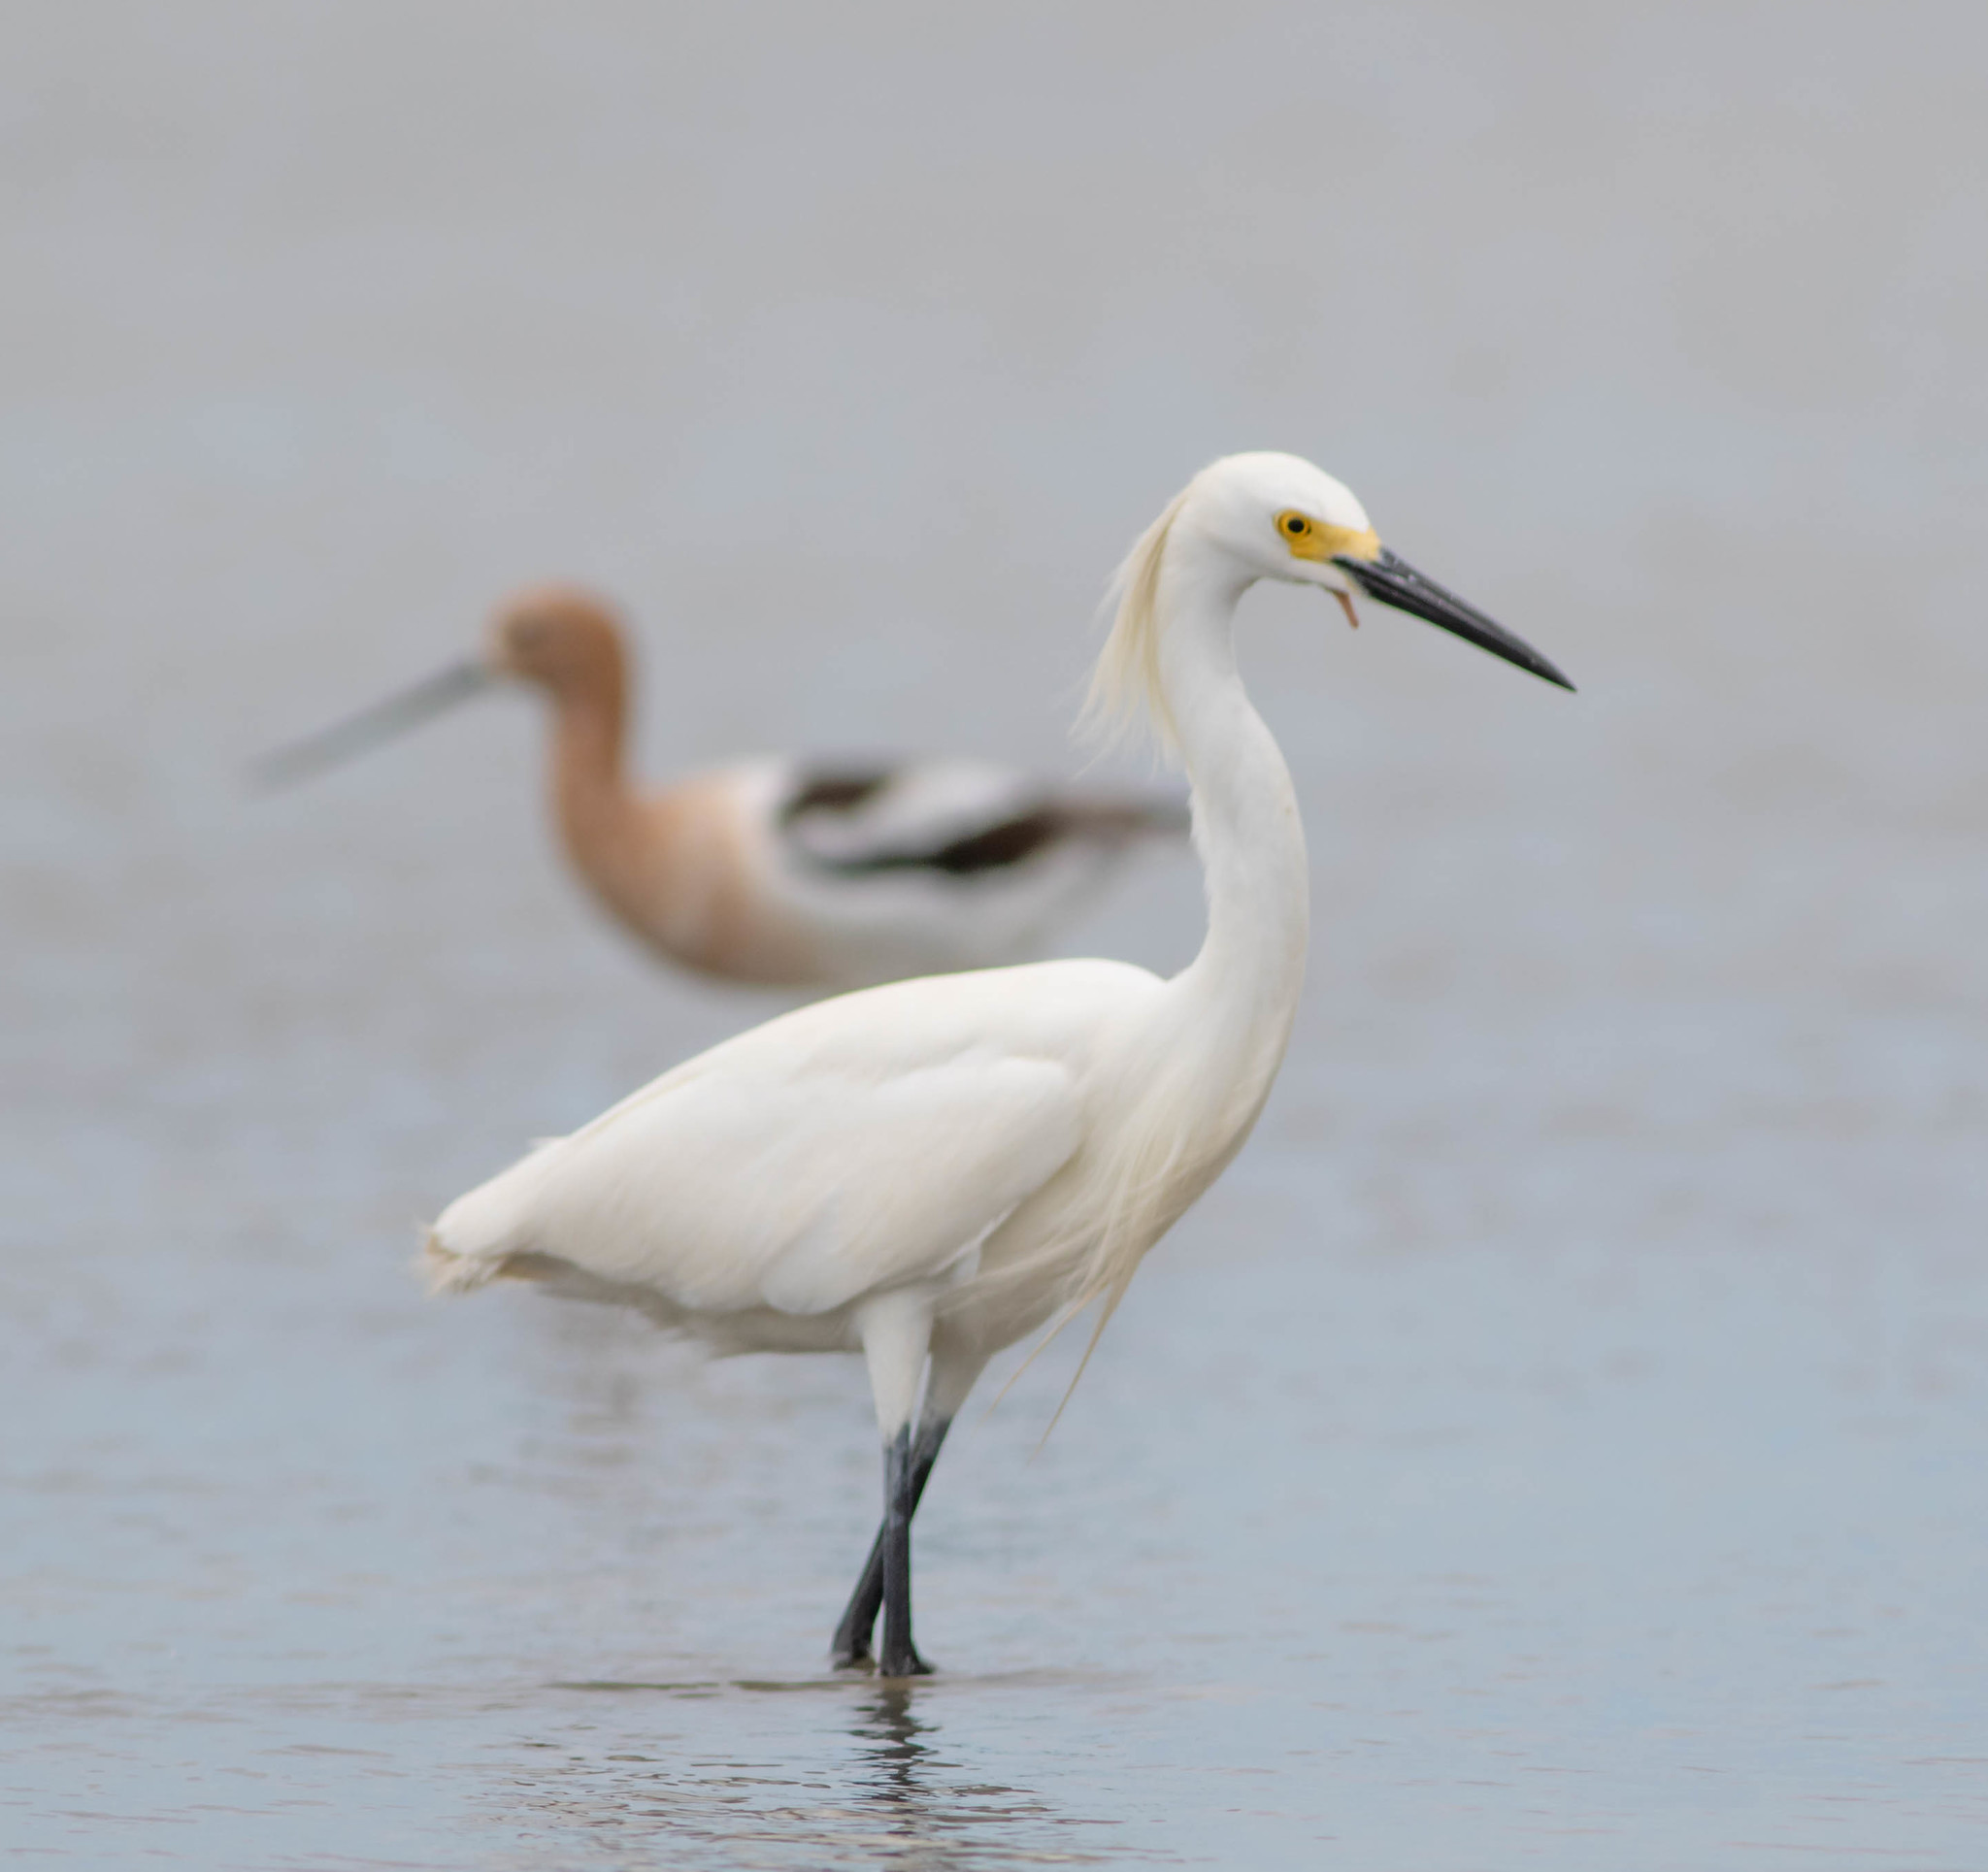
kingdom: Animalia
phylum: Chordata
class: Aves
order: Pelecaniformes
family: Ardeidae
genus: Egretta
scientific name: Egretta thula
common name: Snowy egret
